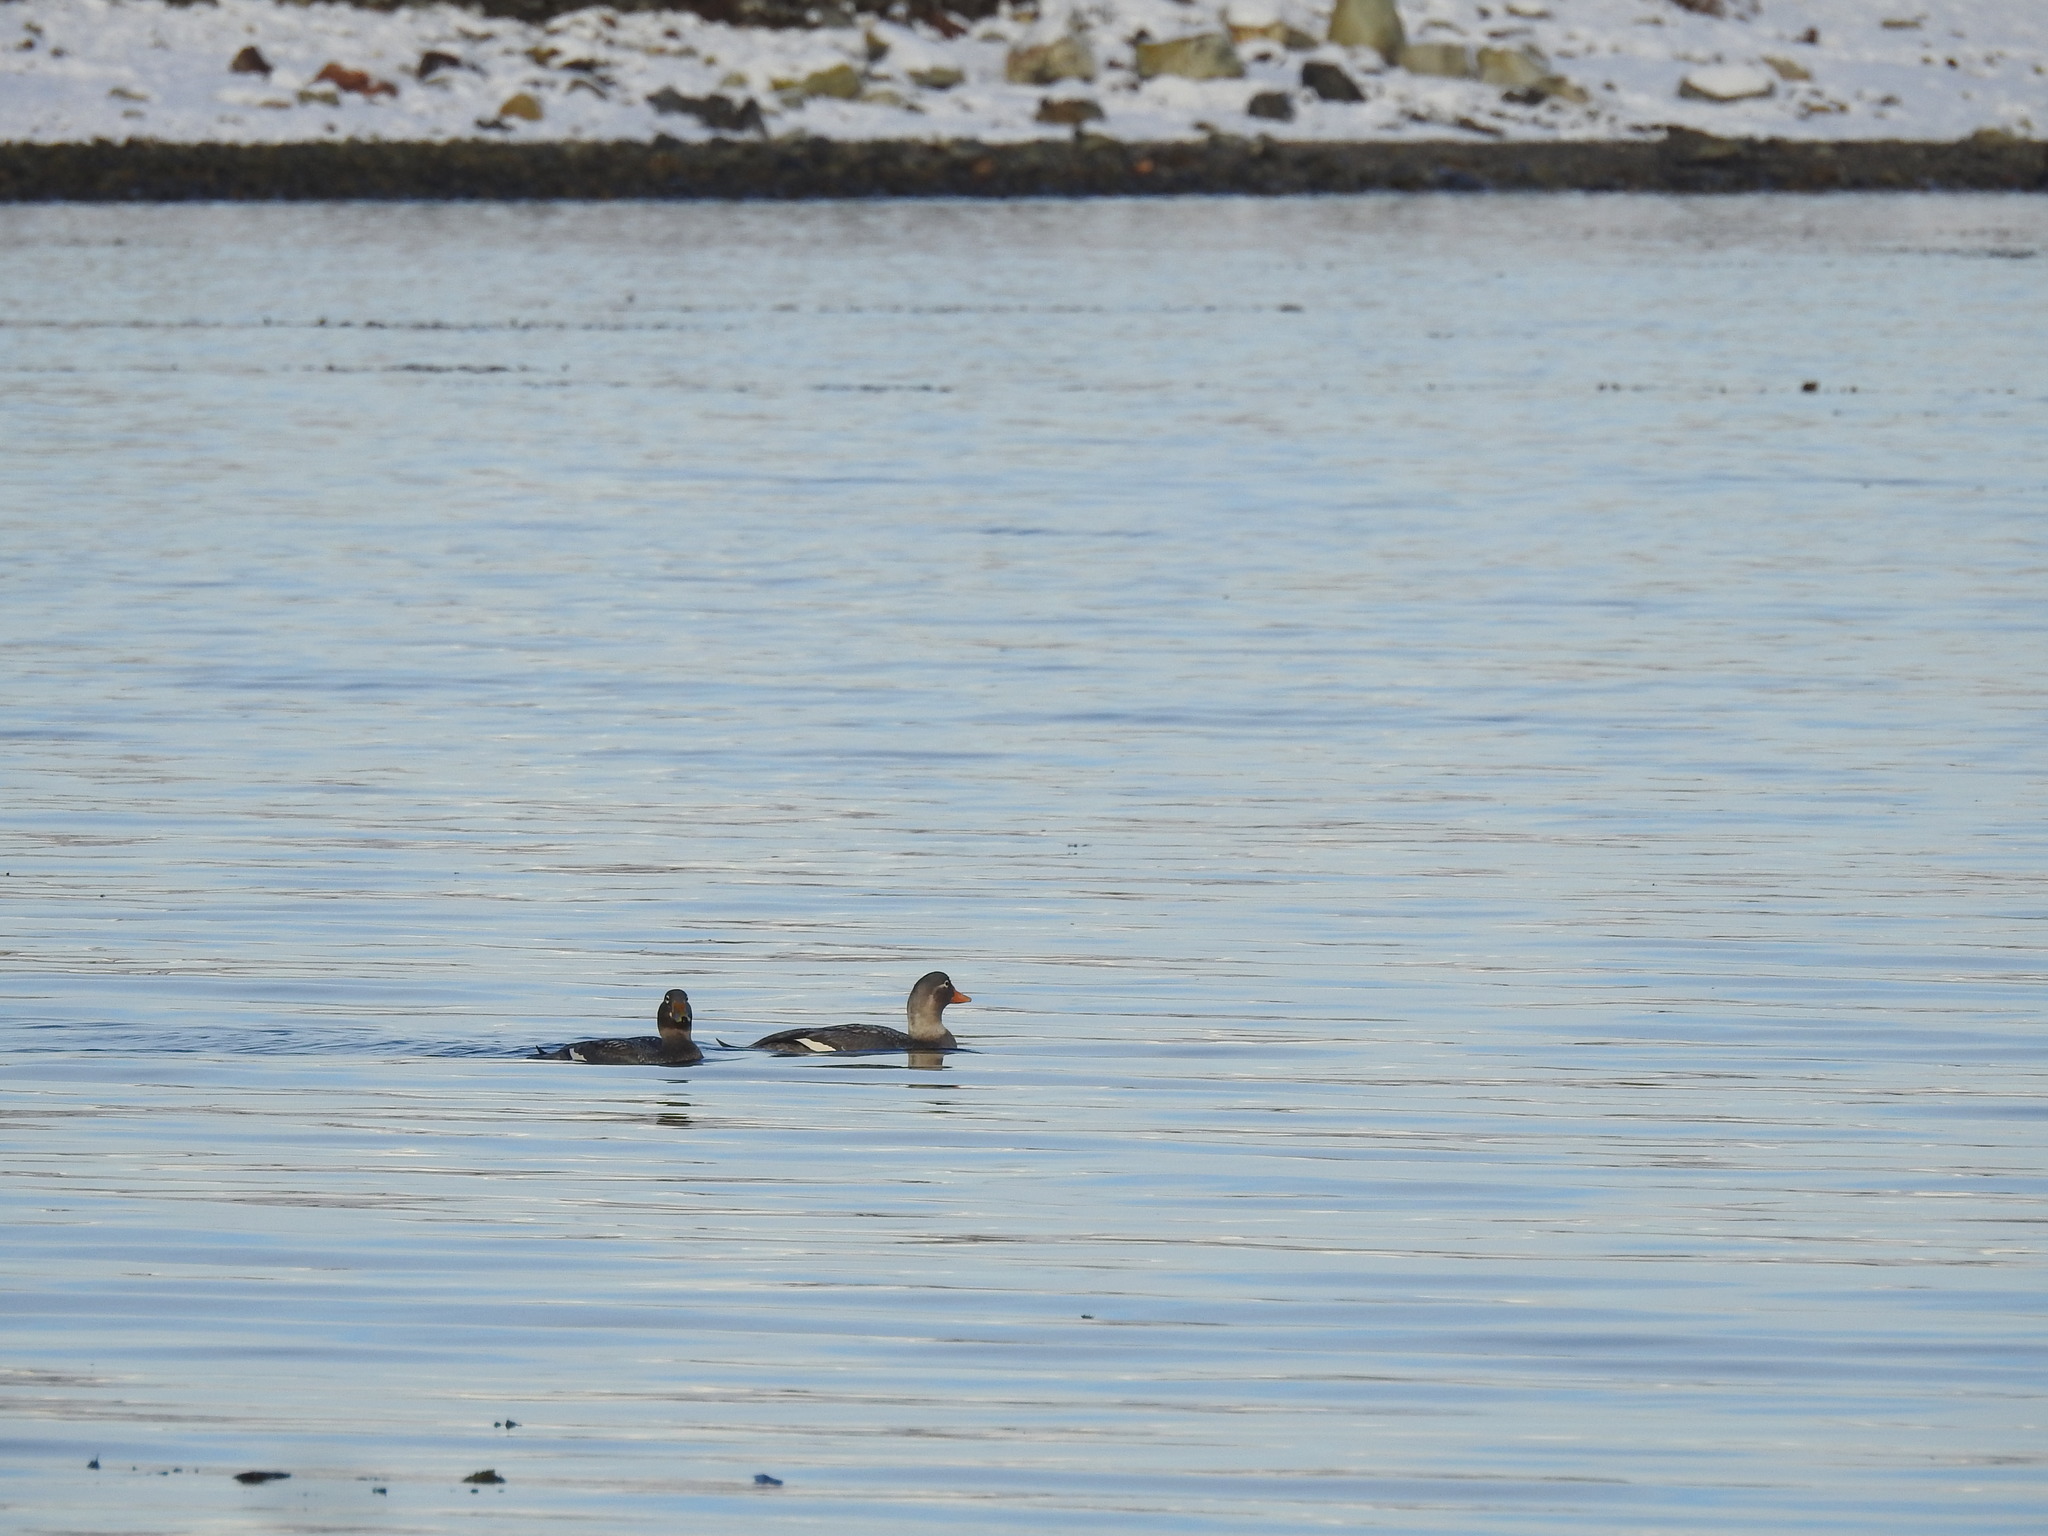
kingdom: Animalia
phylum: Chordata
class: Aves
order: Anseriformes
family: Anatidae
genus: Tachyeres
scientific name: Tachyeres patachonicus
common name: Flying steamer duck
